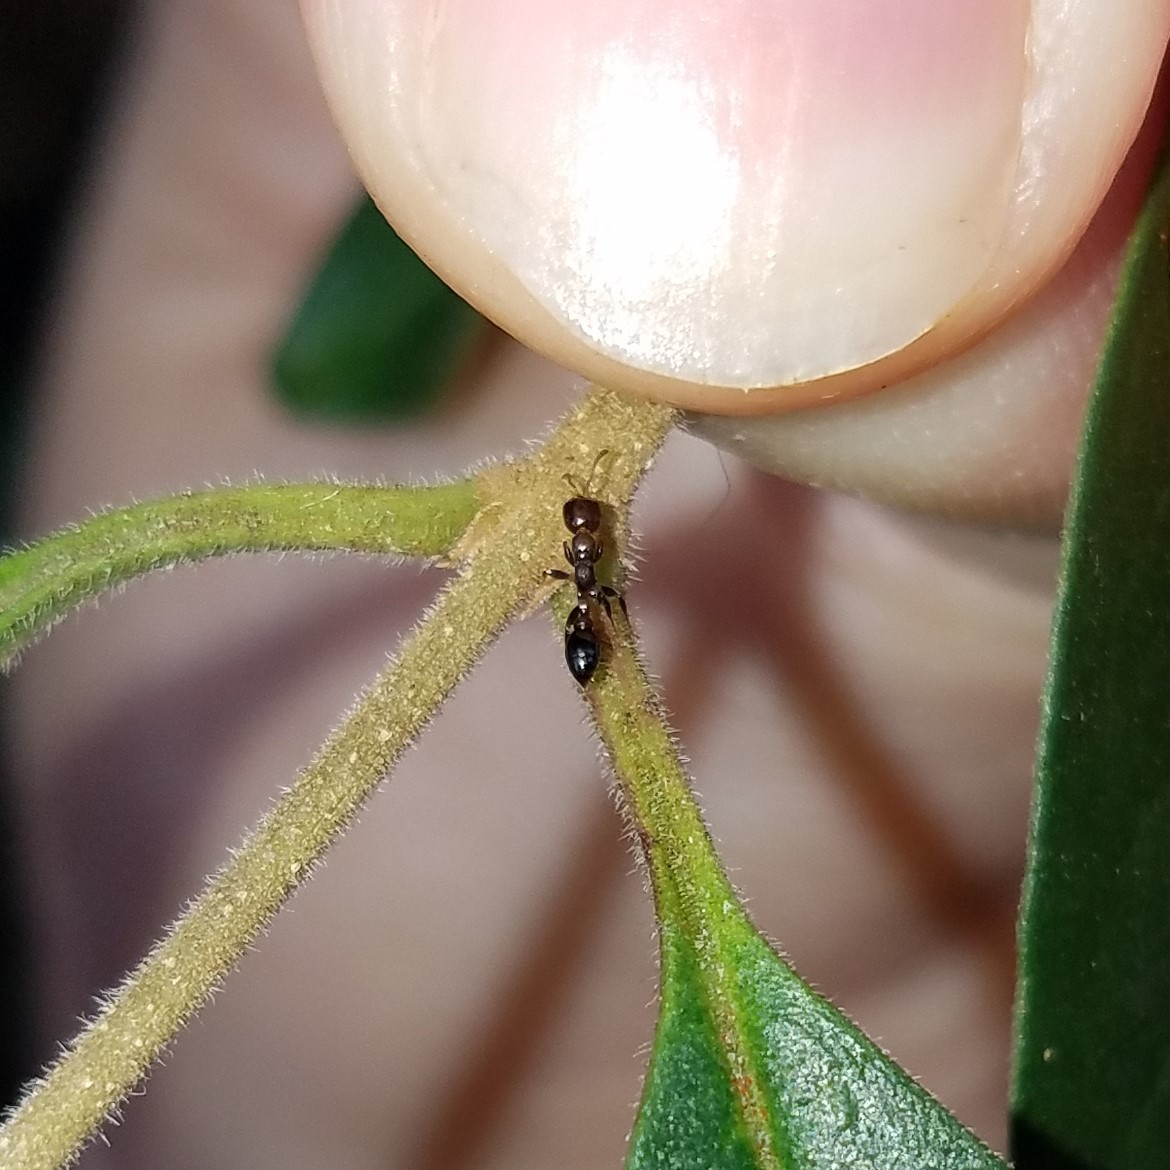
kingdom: Animalia
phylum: Arthropoda
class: Insecta
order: Hymenoptera
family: Formicidae
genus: Pseudomyrmex
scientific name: Pseudomyrmex ejectus
